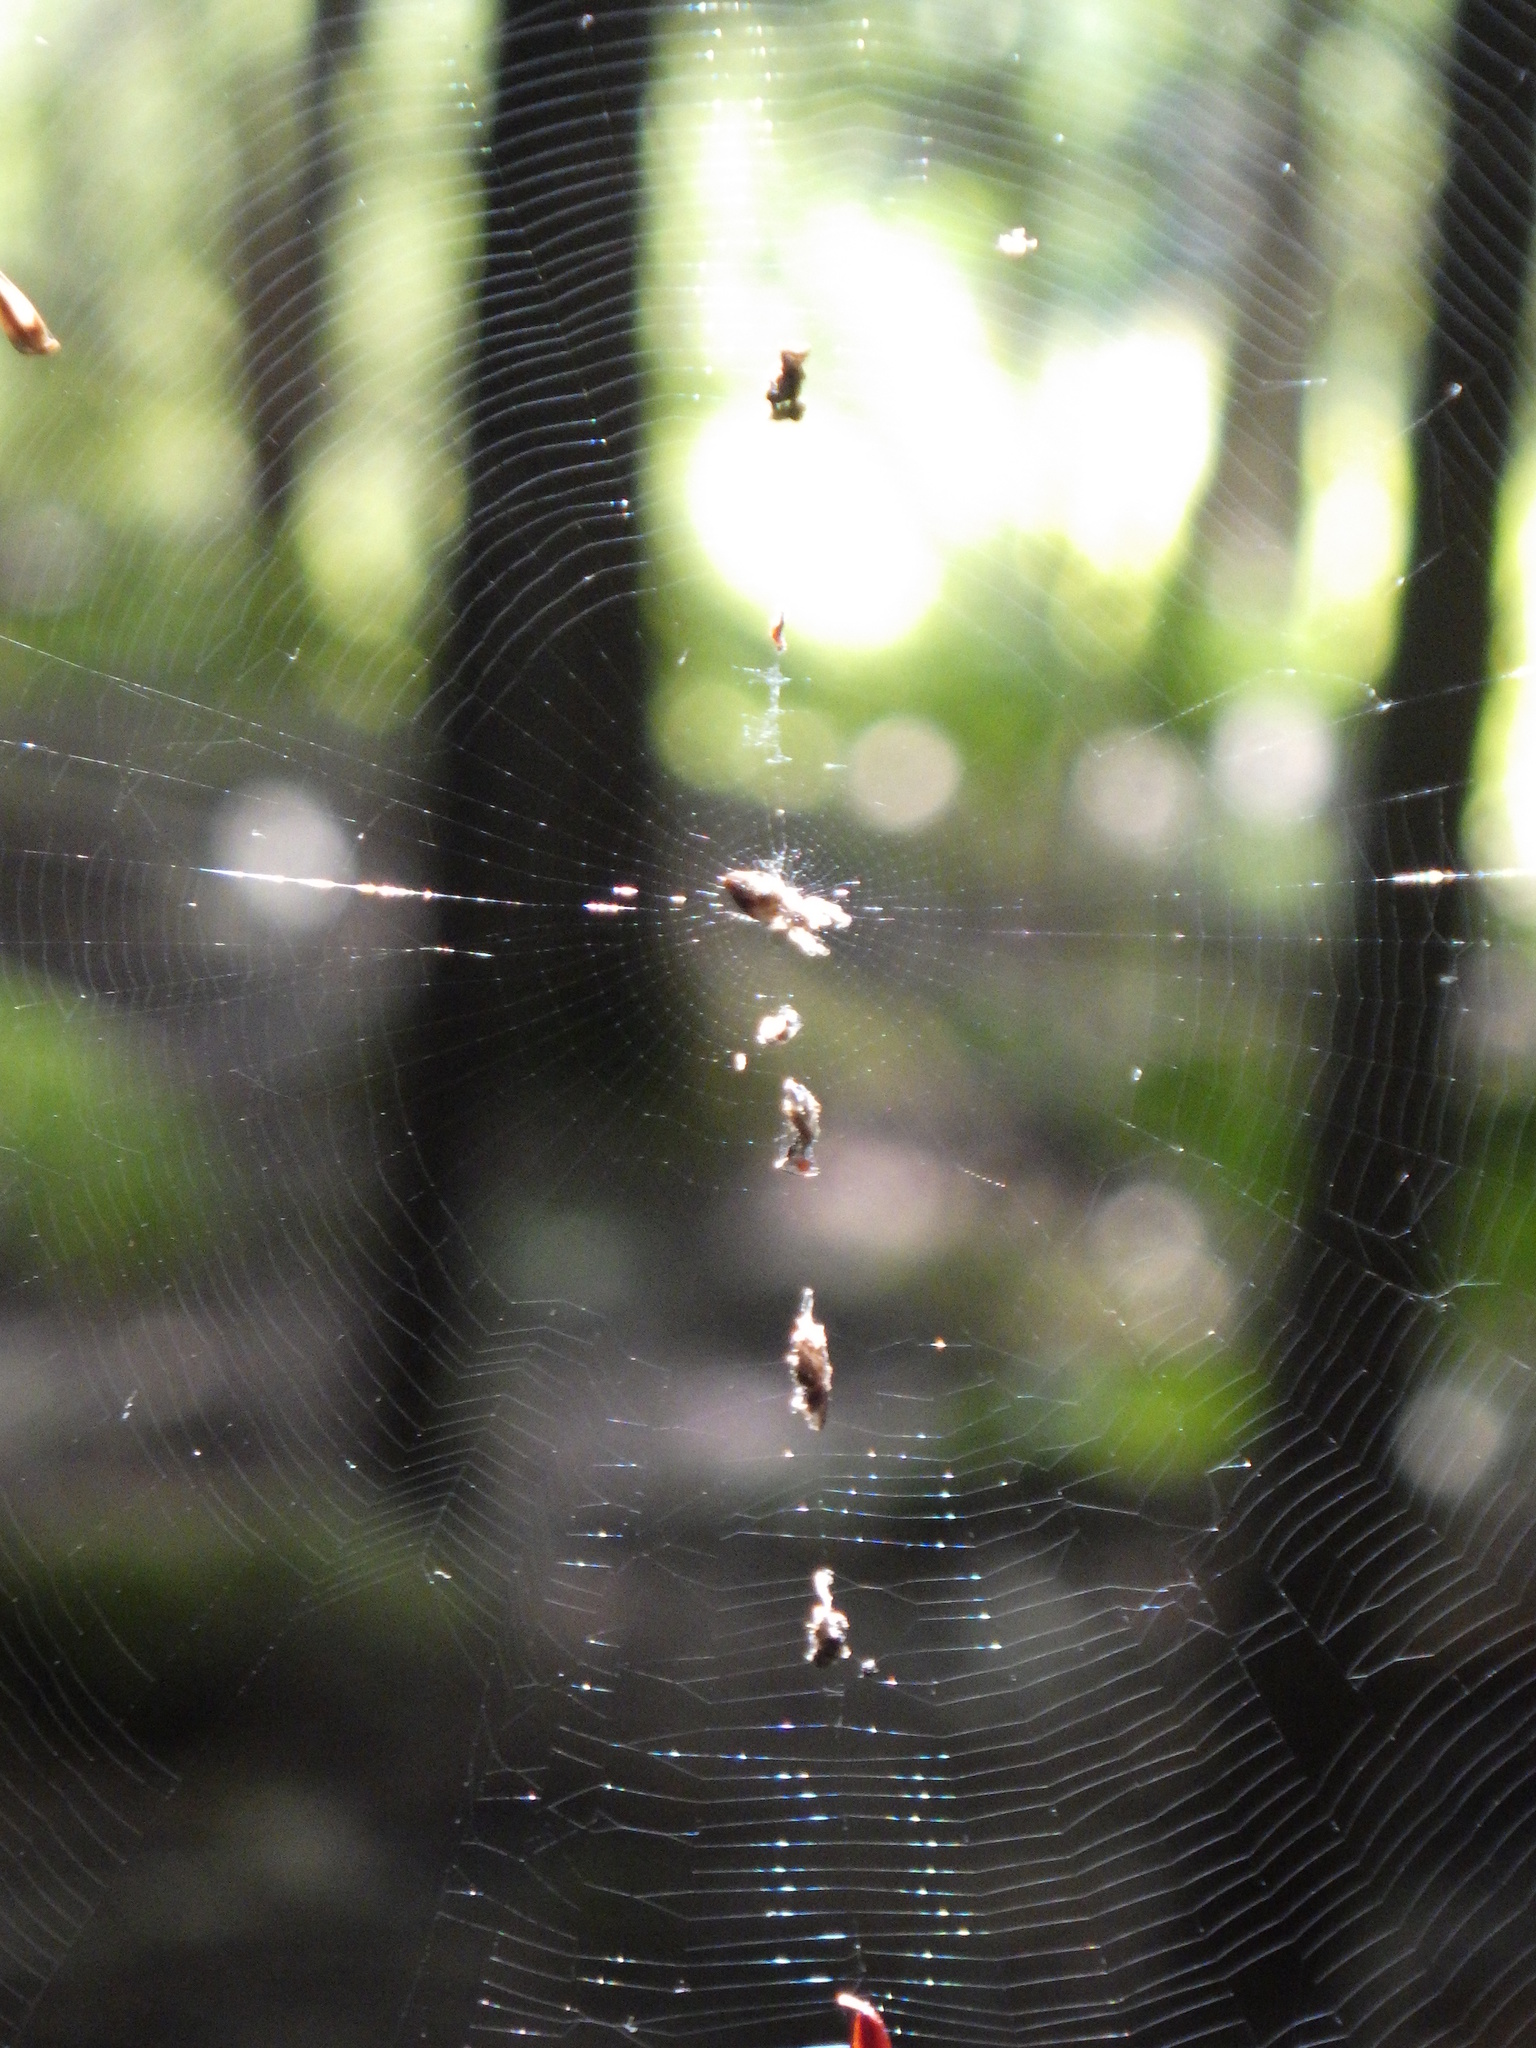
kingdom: Animalia
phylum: Arthropoda
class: Arachnida
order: Araneae
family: Araneidae
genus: Cyclosa
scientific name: Cyclosa conica
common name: Conical trashline orbweaver
